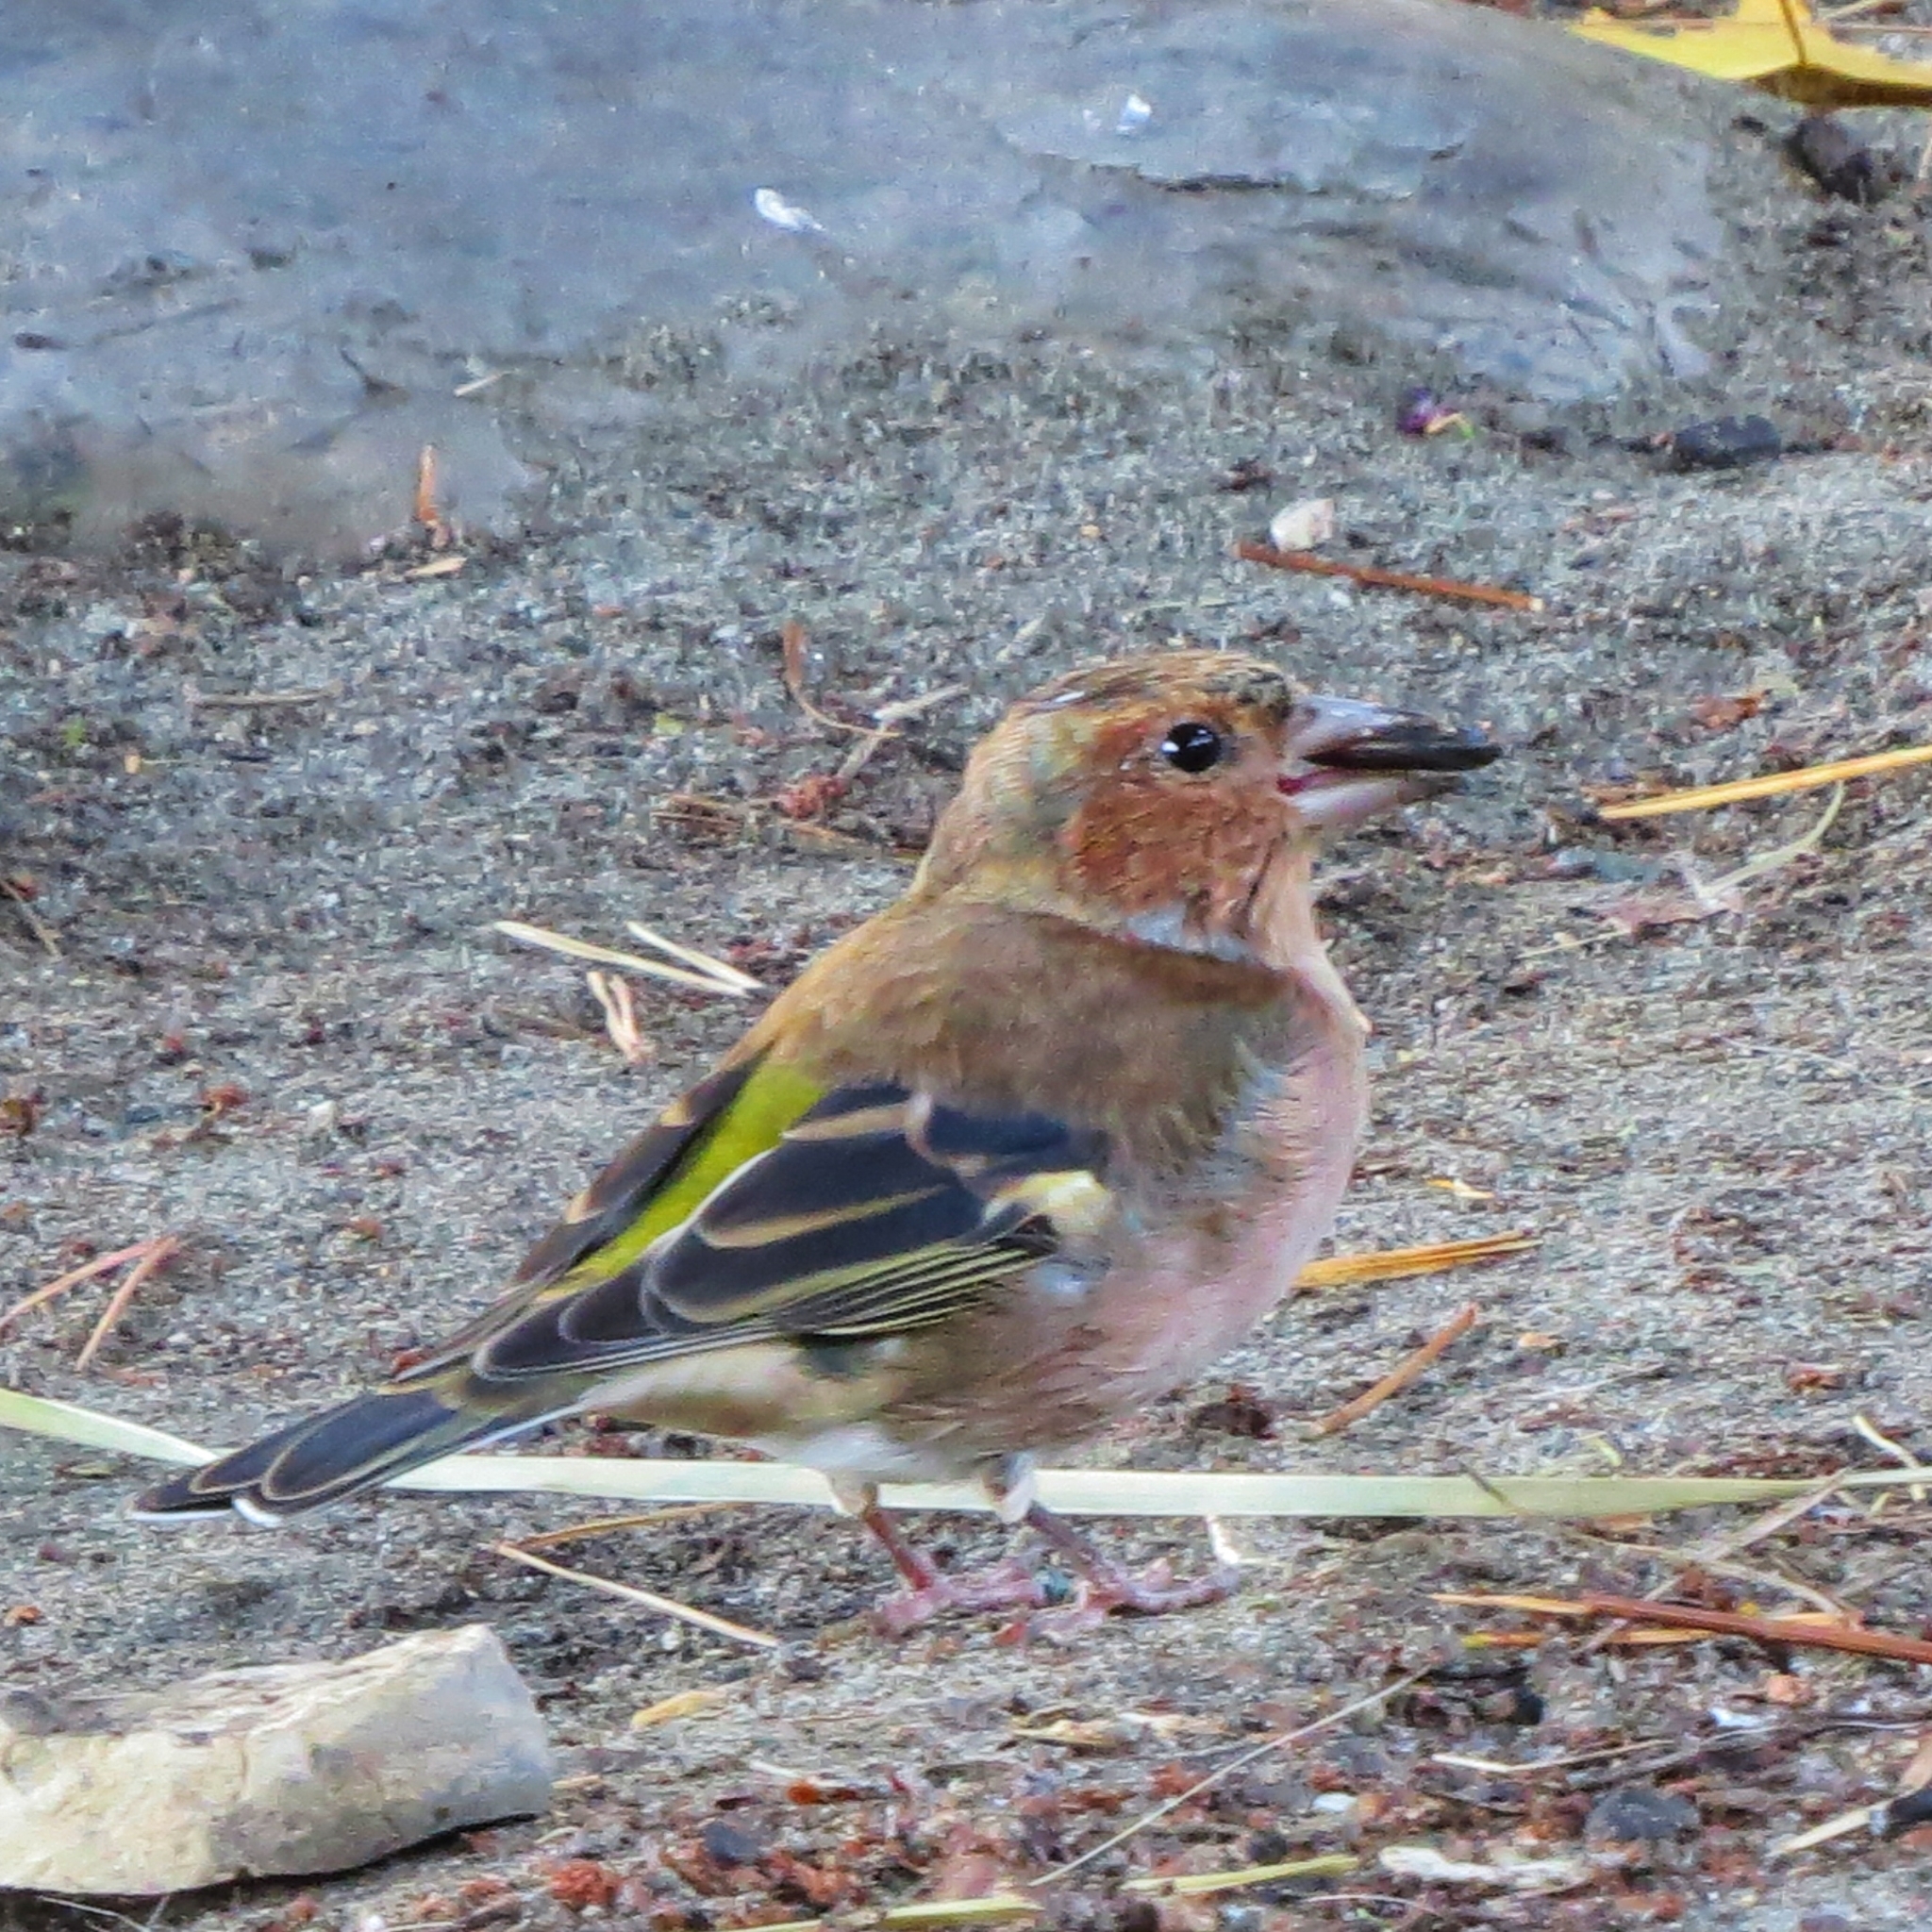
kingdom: Animalia
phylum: Chordata
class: Aves
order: Passeriformes
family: Fringillidae
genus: Fringilla
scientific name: Fringilla coelebs
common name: Common chaffinch
